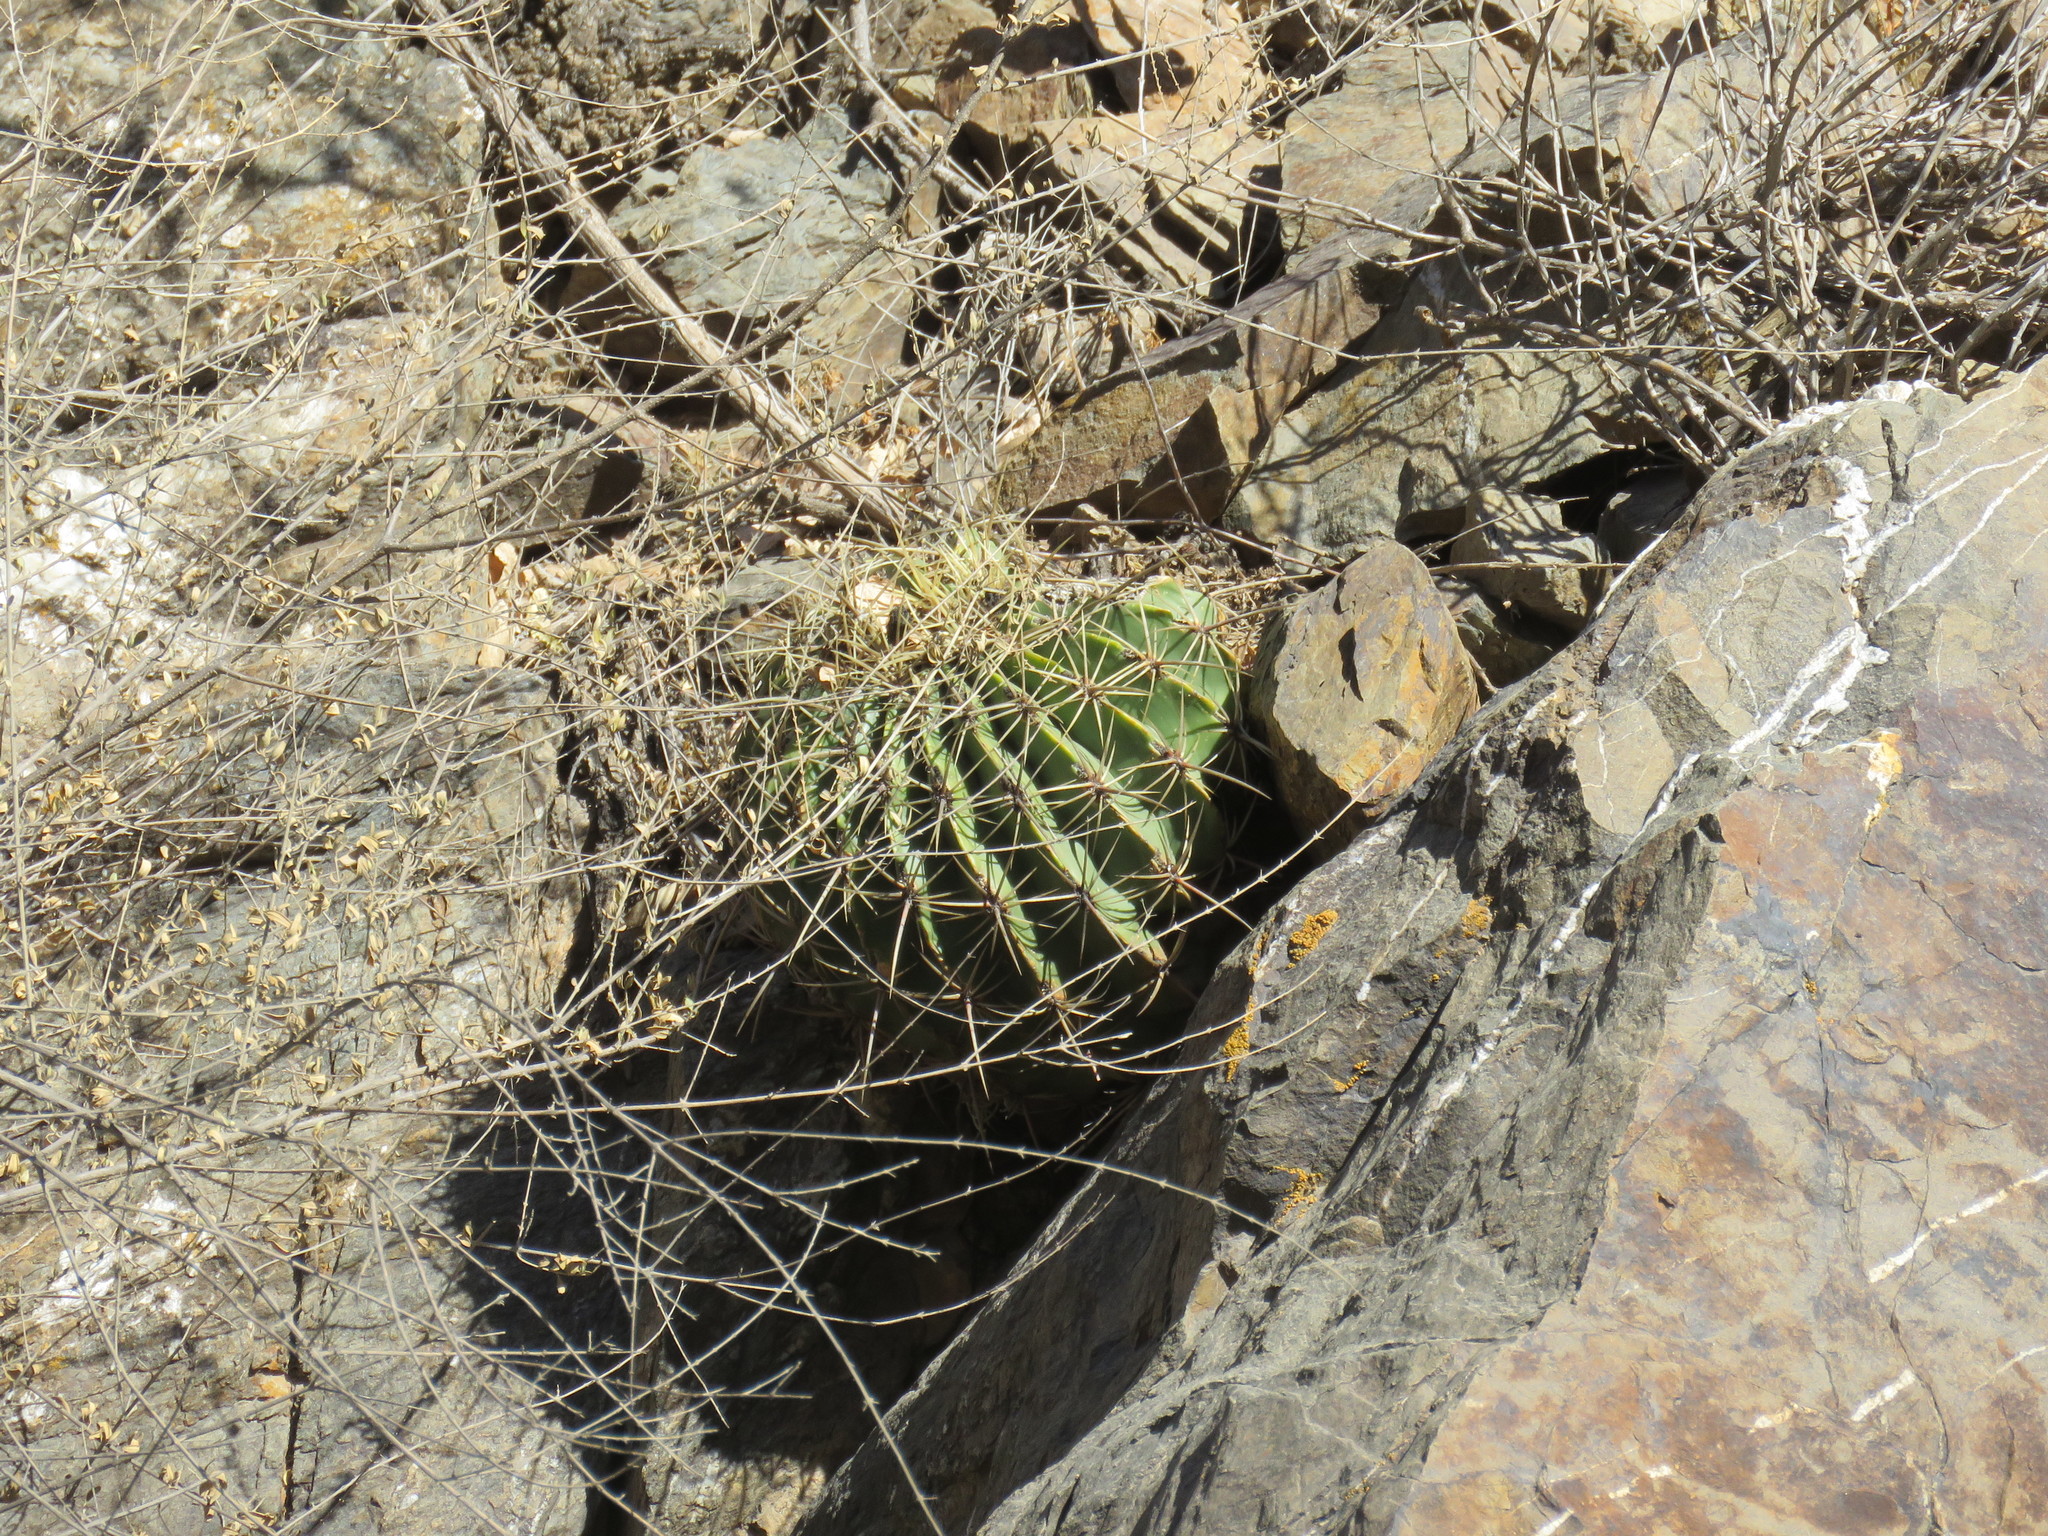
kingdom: Plantae
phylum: Tracheophyta
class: Magnoliopsida
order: Caryophyllales
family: Cactaceae
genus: Parrycactus
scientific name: Parrycactus echidne
